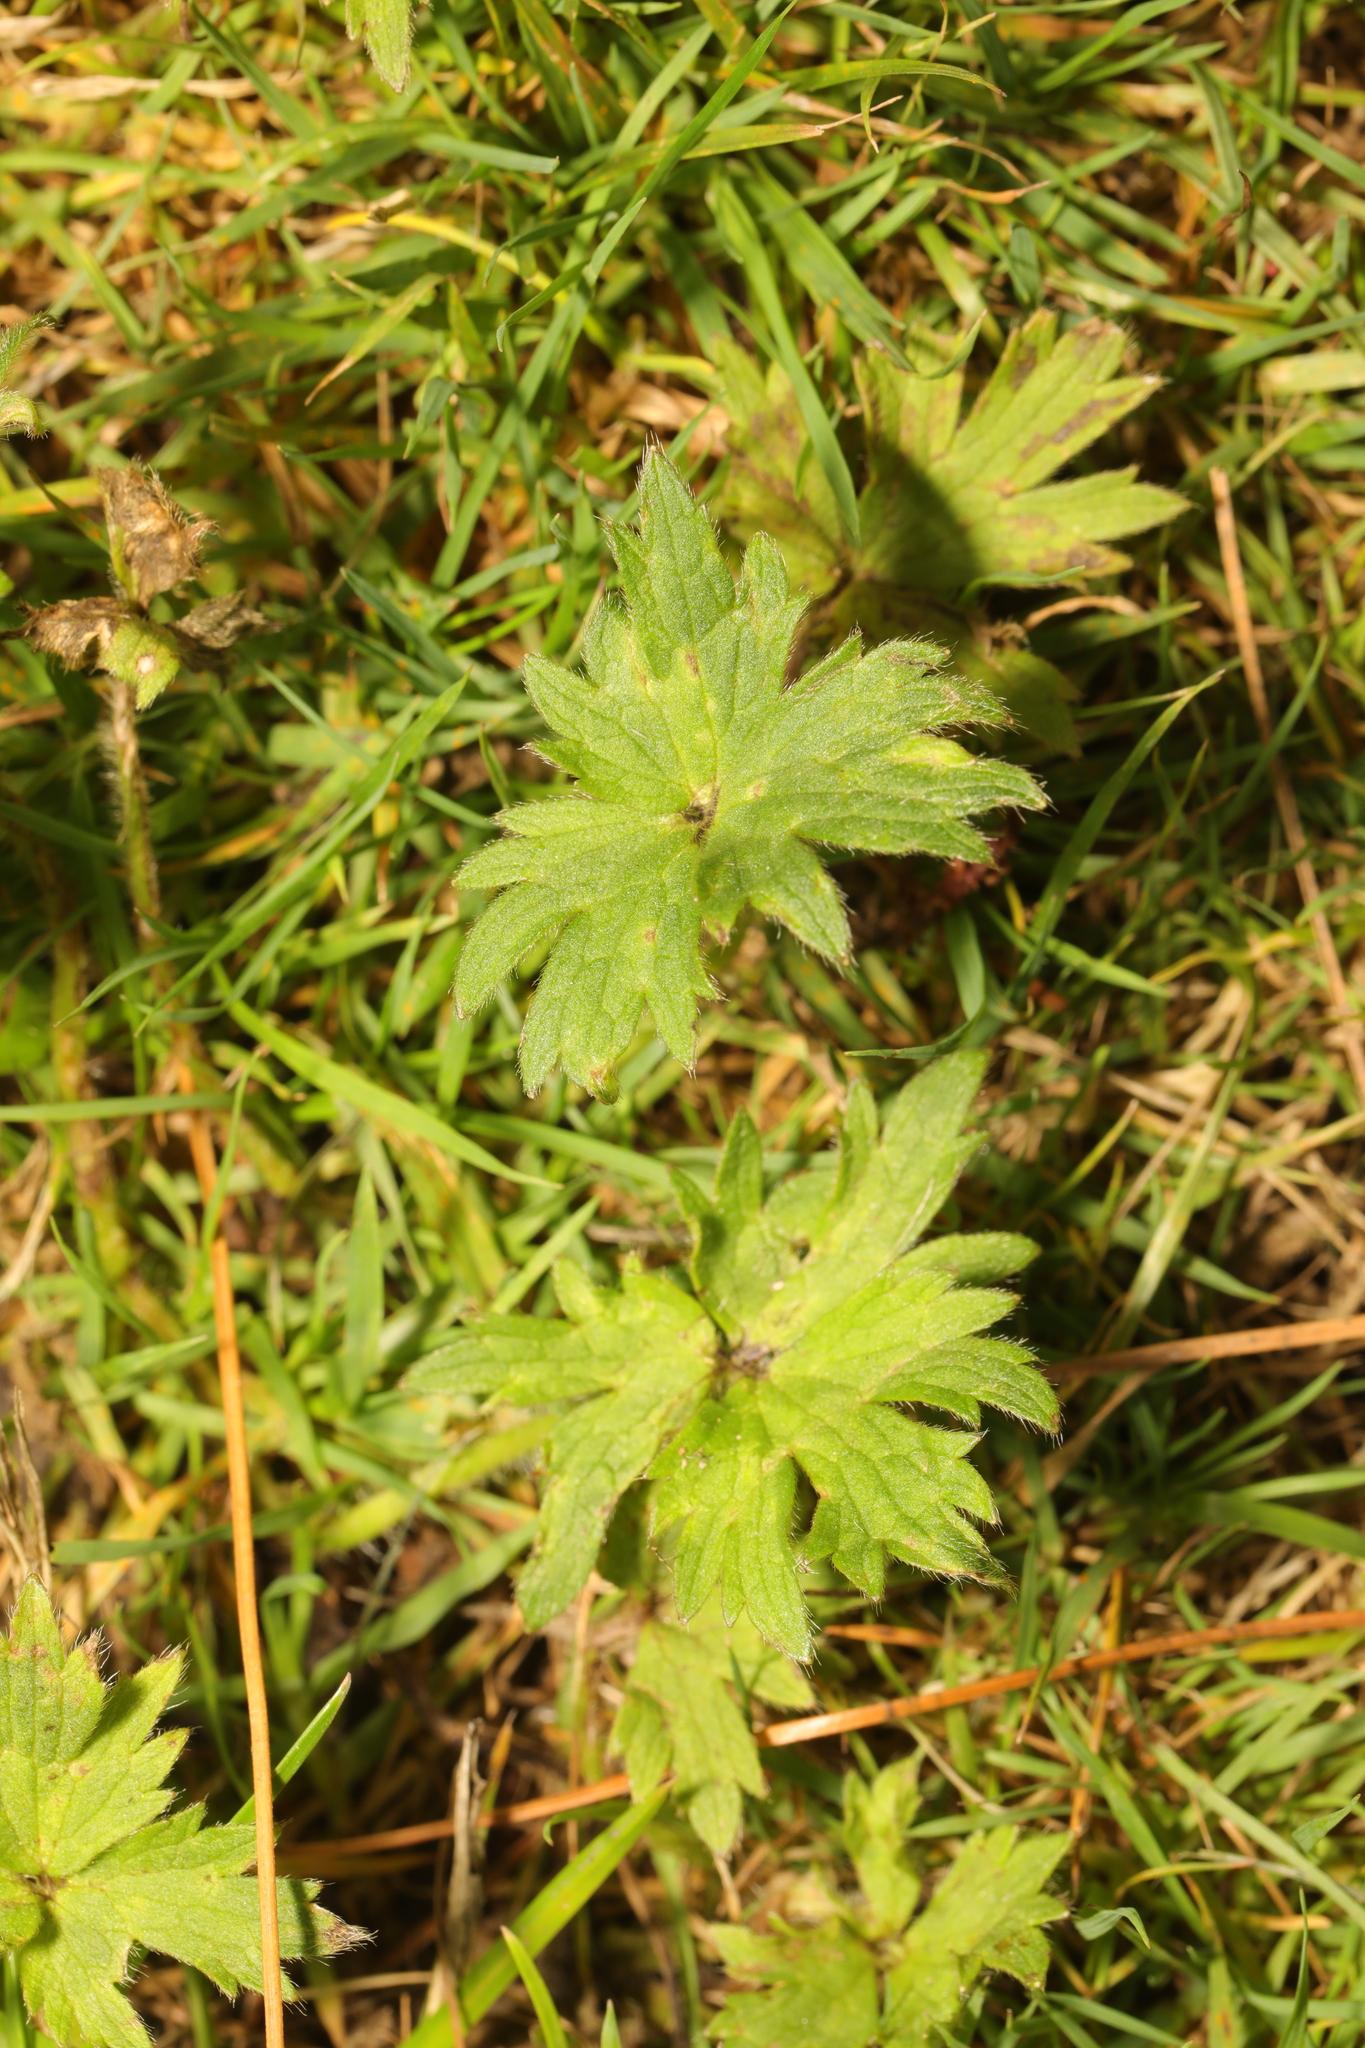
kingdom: Plantae
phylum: Tracheophyta
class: Magnoliopsida
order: Ranunculales
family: Ranunculaceae
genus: Ranunculus
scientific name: Ranunculus acris
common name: Meadow buttercup
